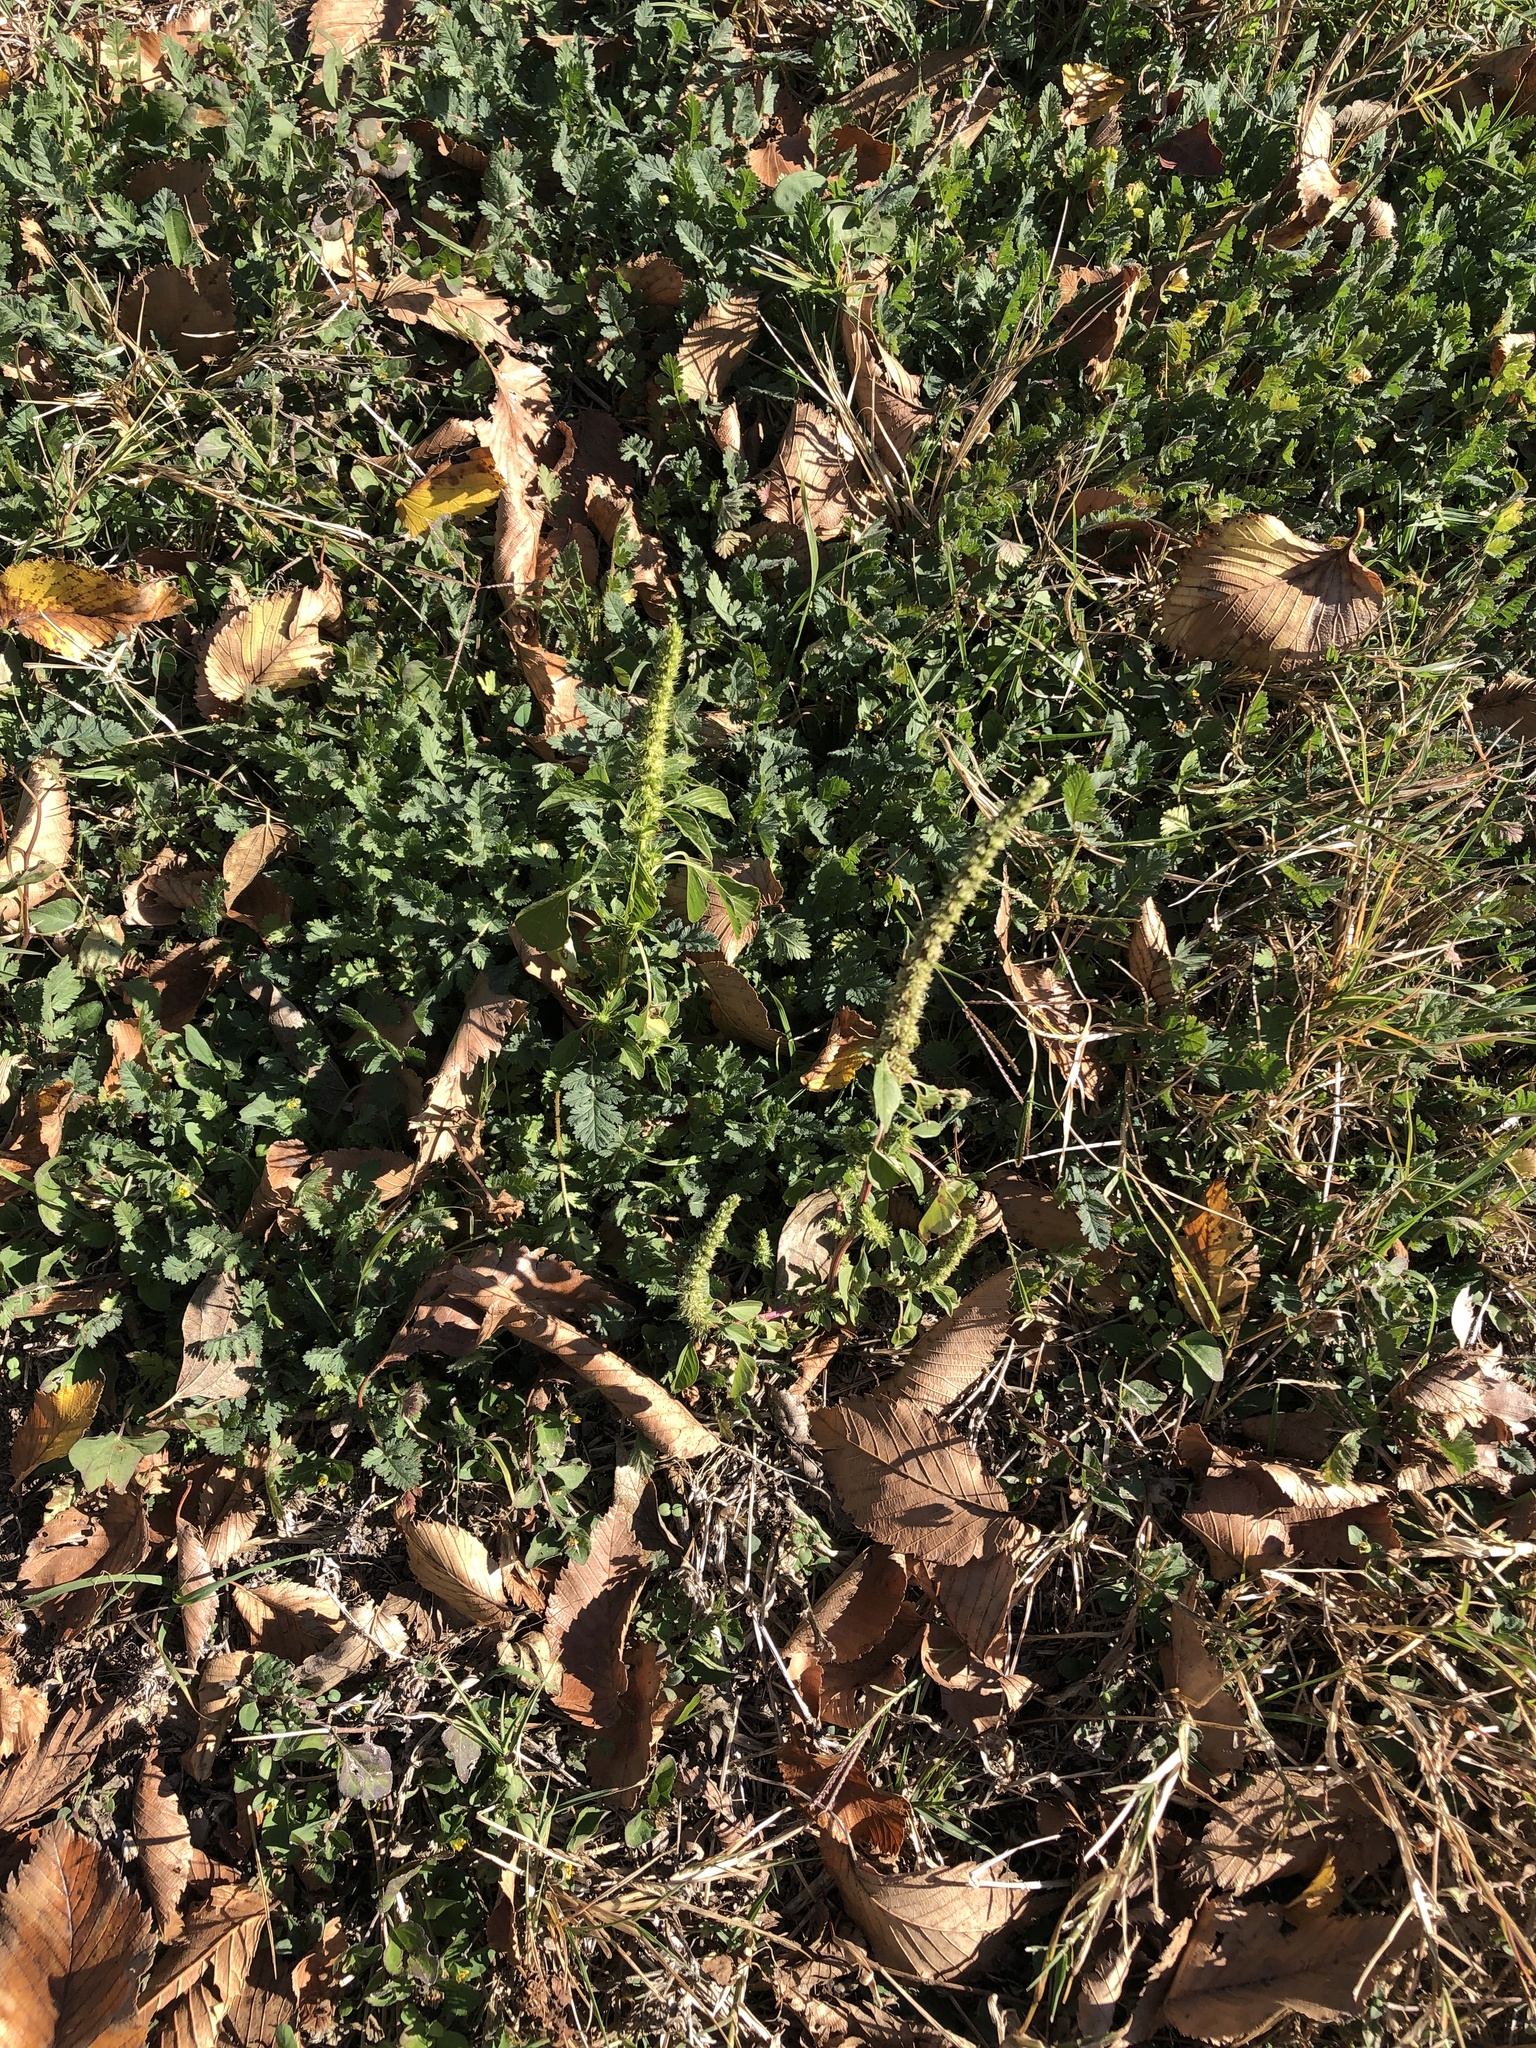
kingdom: Plantae
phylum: Tracheophyta
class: Magnoliopsida
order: Caryophyllales
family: Amaranthaceae
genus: Amaranthus
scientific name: Amaranthus palmeri
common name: Dioecious amaranth
